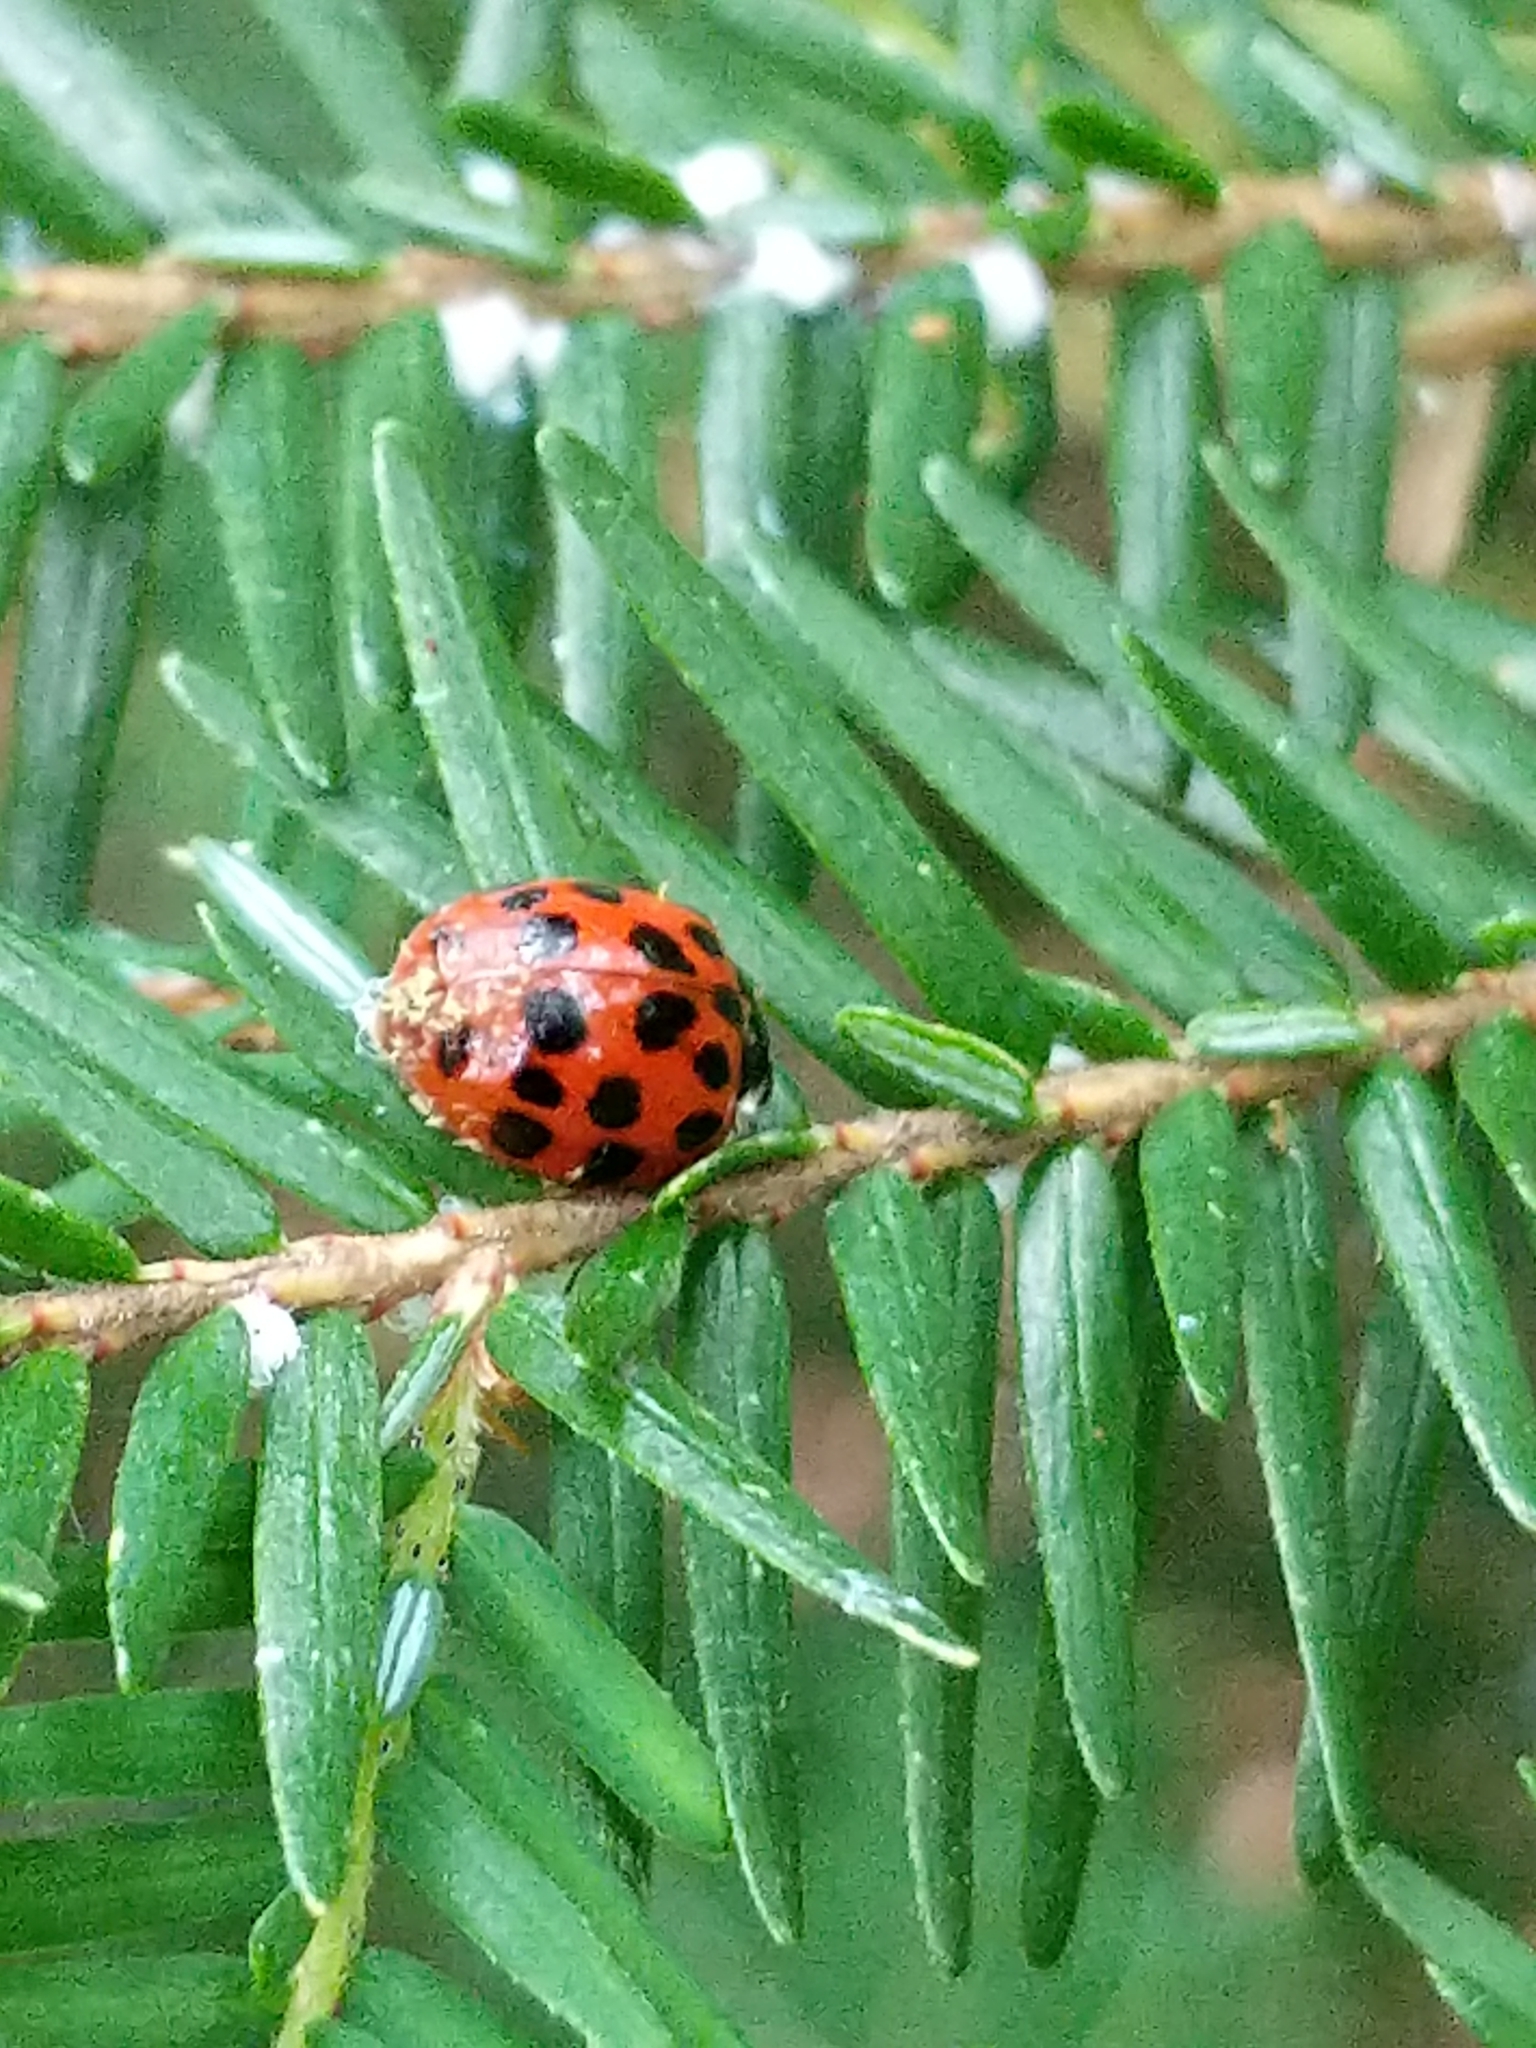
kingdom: Animalia
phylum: Arthropoda
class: Insecta
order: Coleoptera
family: Coccinellidae
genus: Harmonia
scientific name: Harmonia axyridis
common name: Harlequin ladybird
